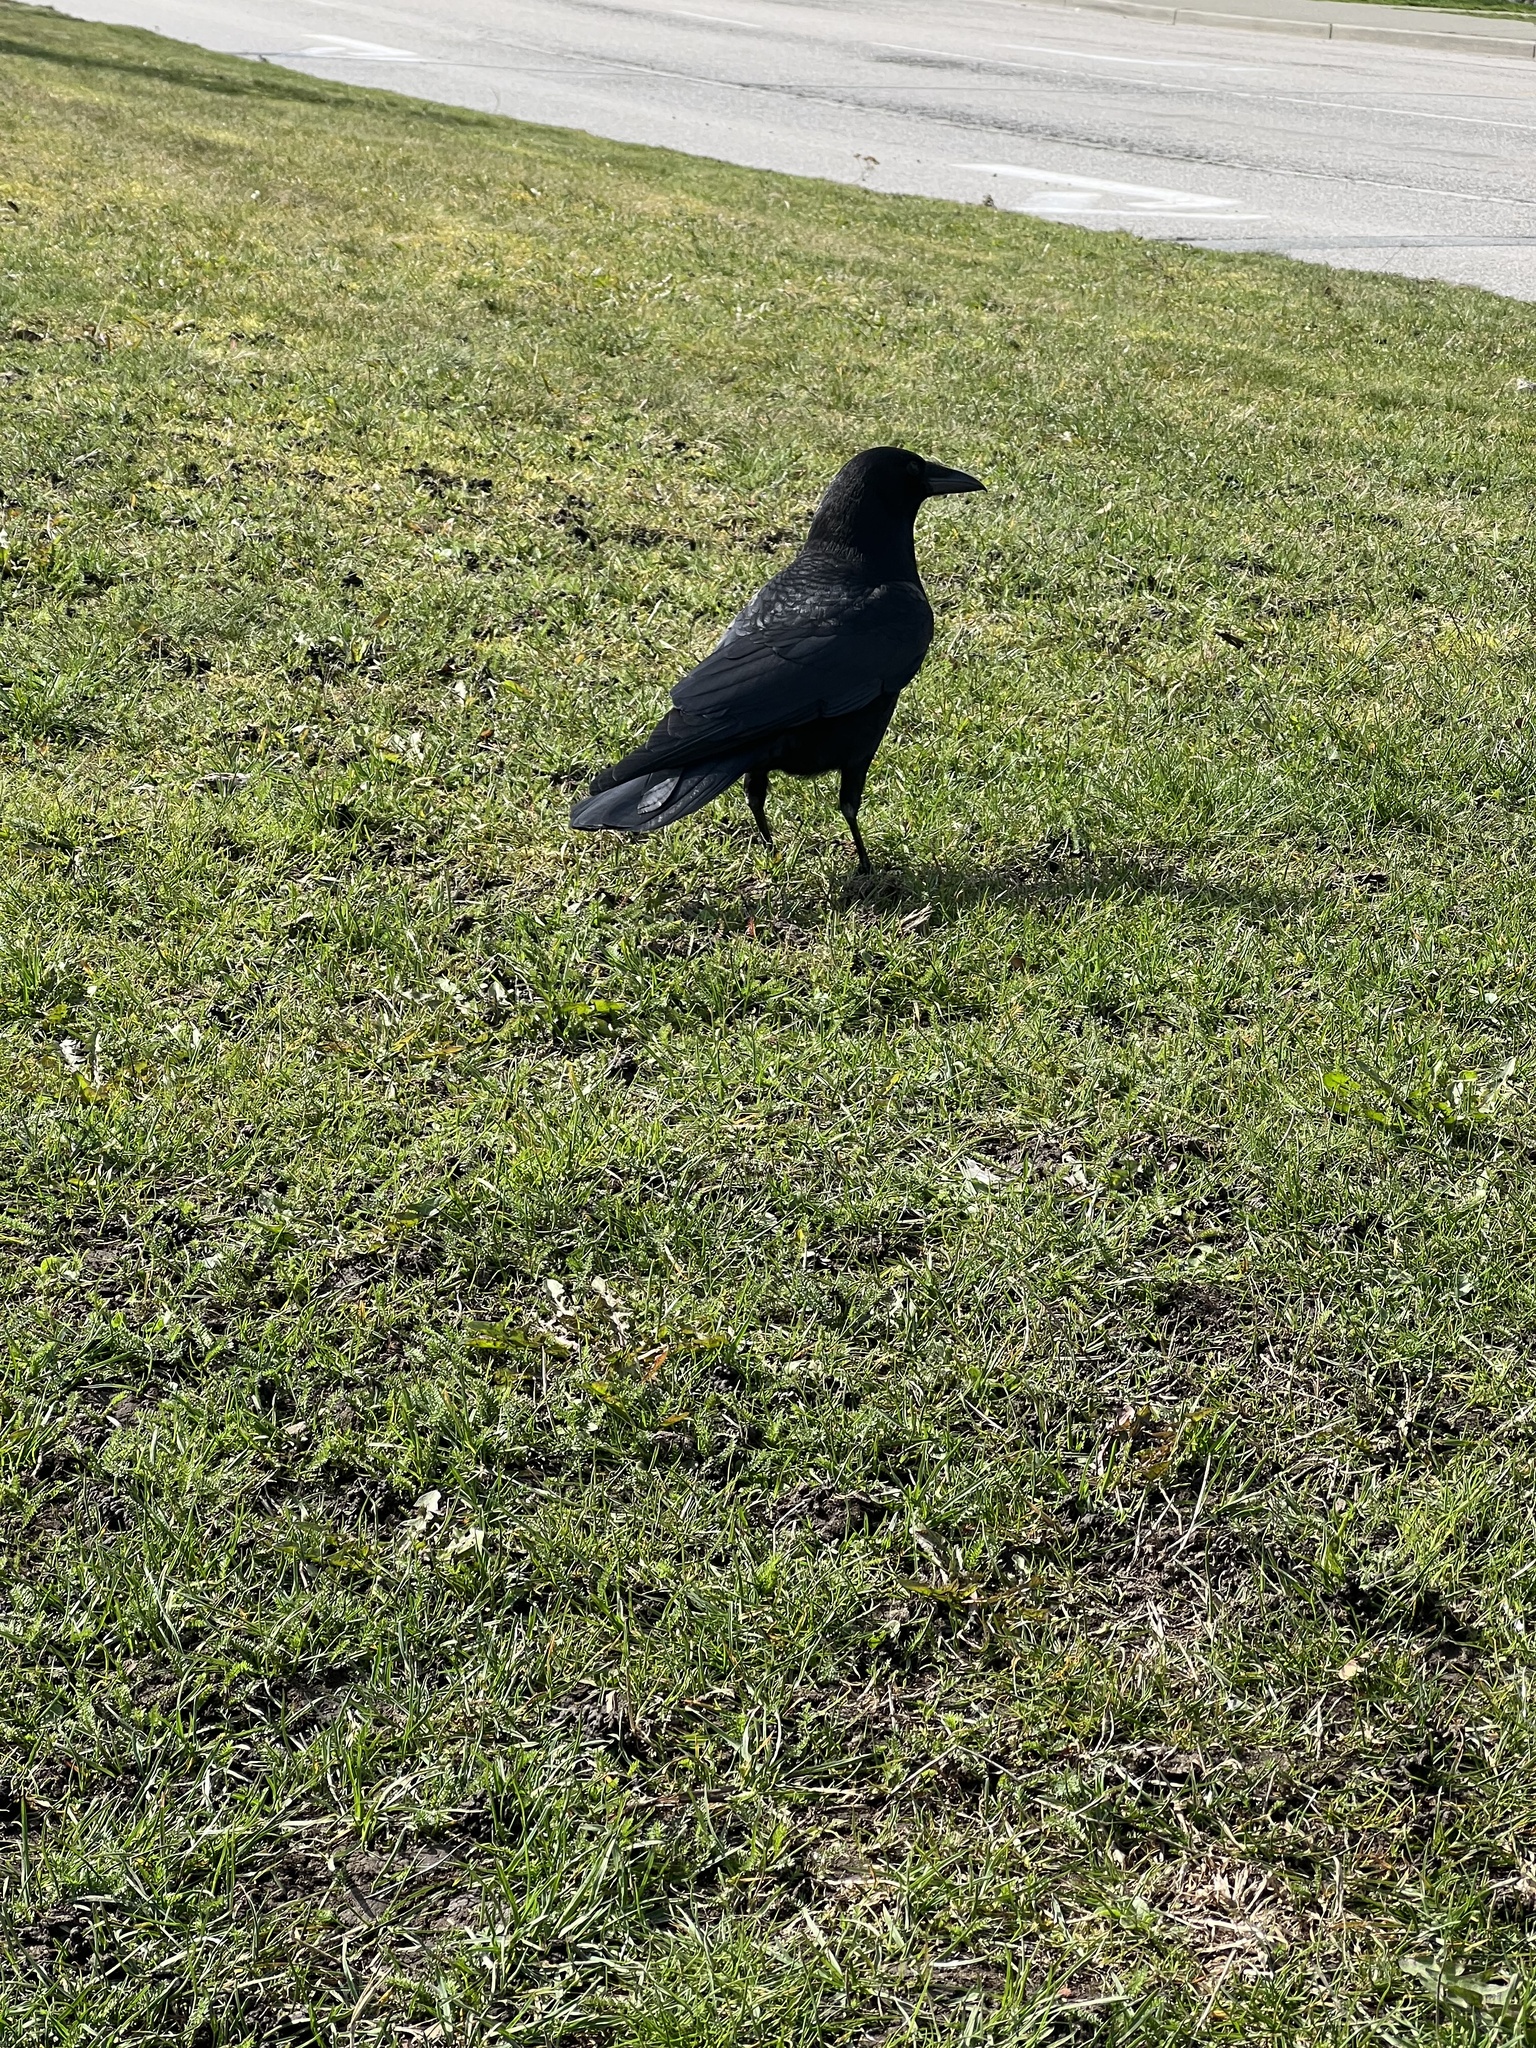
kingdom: Animalia
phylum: Chordata
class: Aves
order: Passeriformes
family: Corvidae
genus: Corvus
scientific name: Corvus brachyrhynchos
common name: American crow
